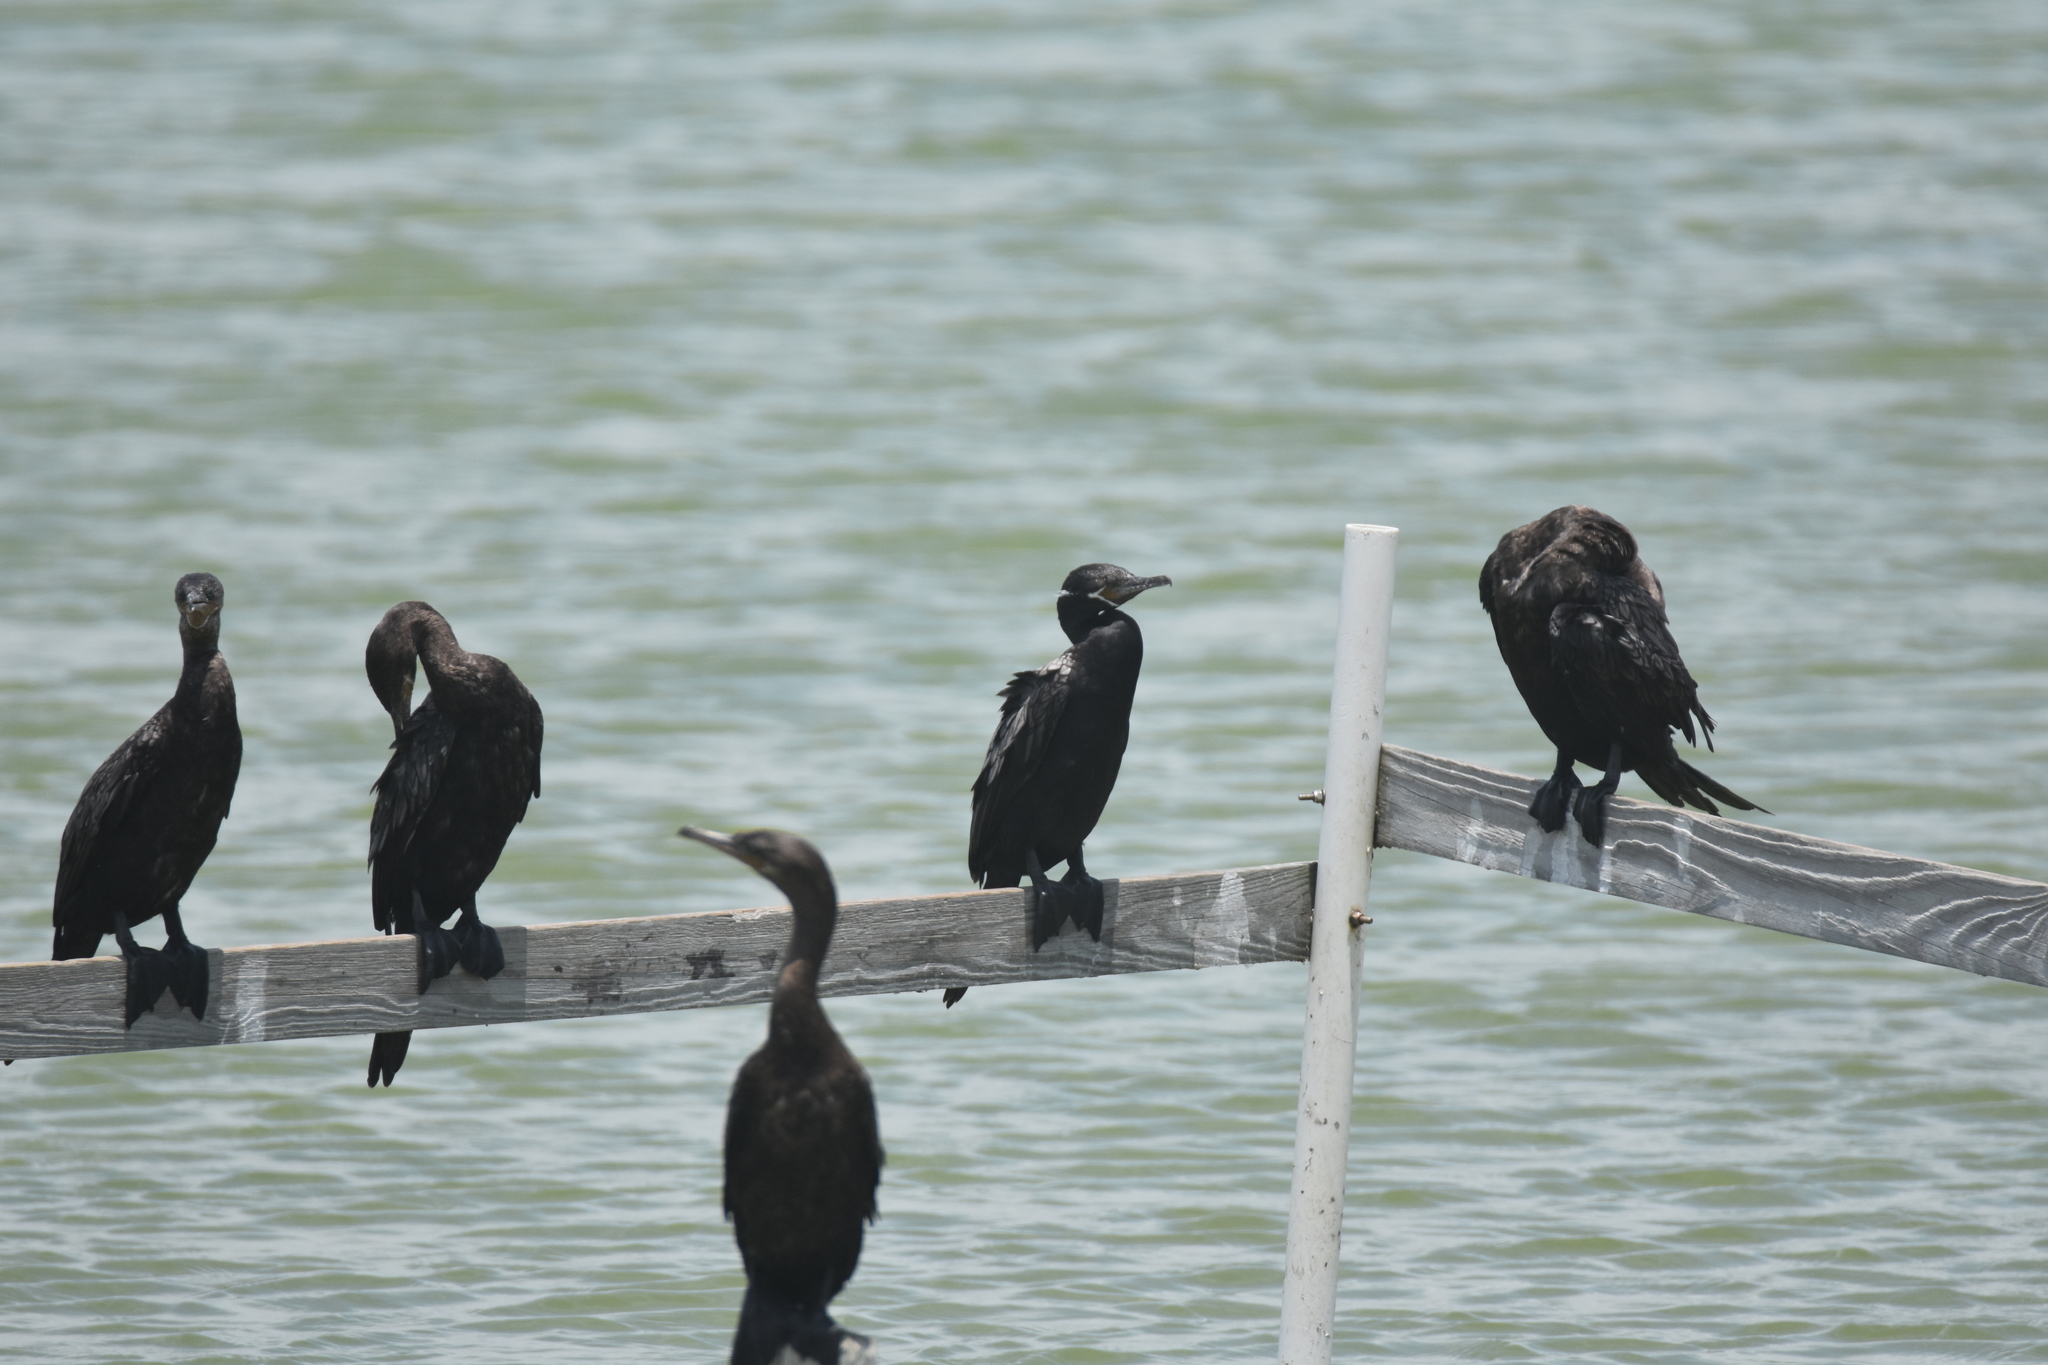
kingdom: Animalia
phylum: Chordata
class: Aves
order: Suliformes
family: Phalacrocoracidae
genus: Phalacrocorax
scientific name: Phalacrocorax brasilianus
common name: Neotropic cormorant
